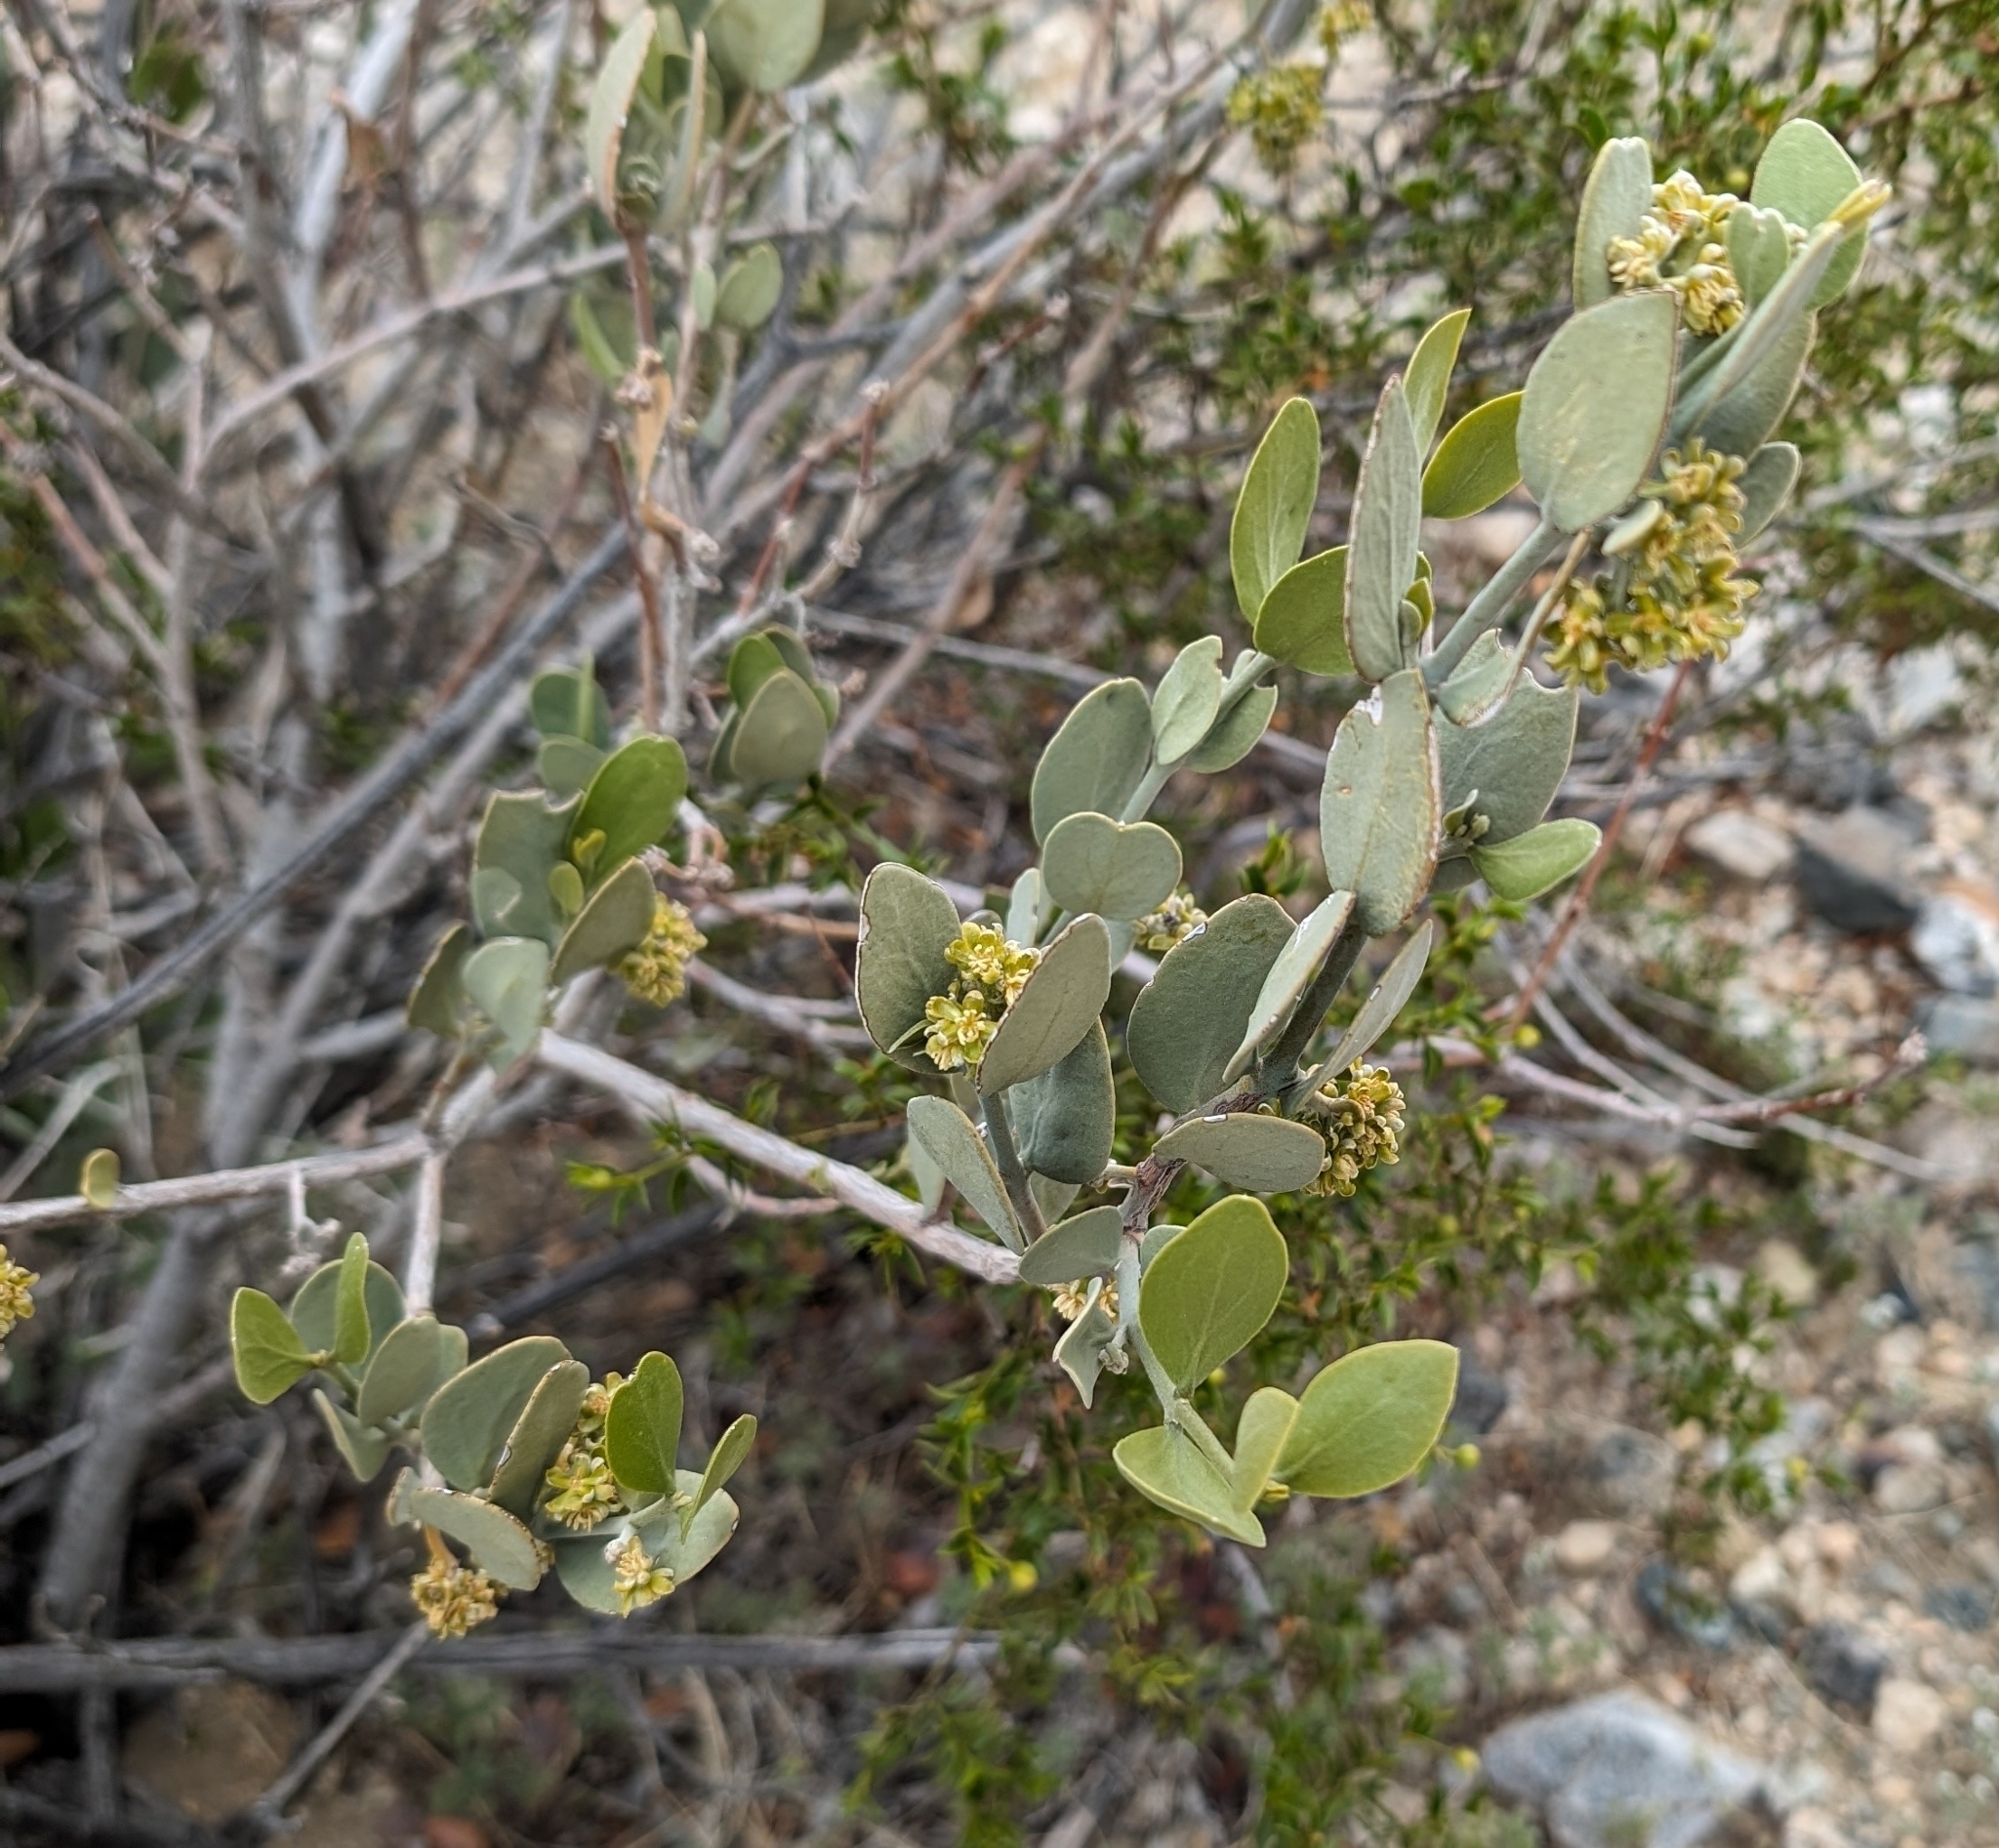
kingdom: Plantae
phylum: Tracheophyta
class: Magnoliopsida
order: Caryophyllales
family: Simmondsiaceae
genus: Simmondsia
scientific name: Simmondsia chinensis
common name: Jojoba
